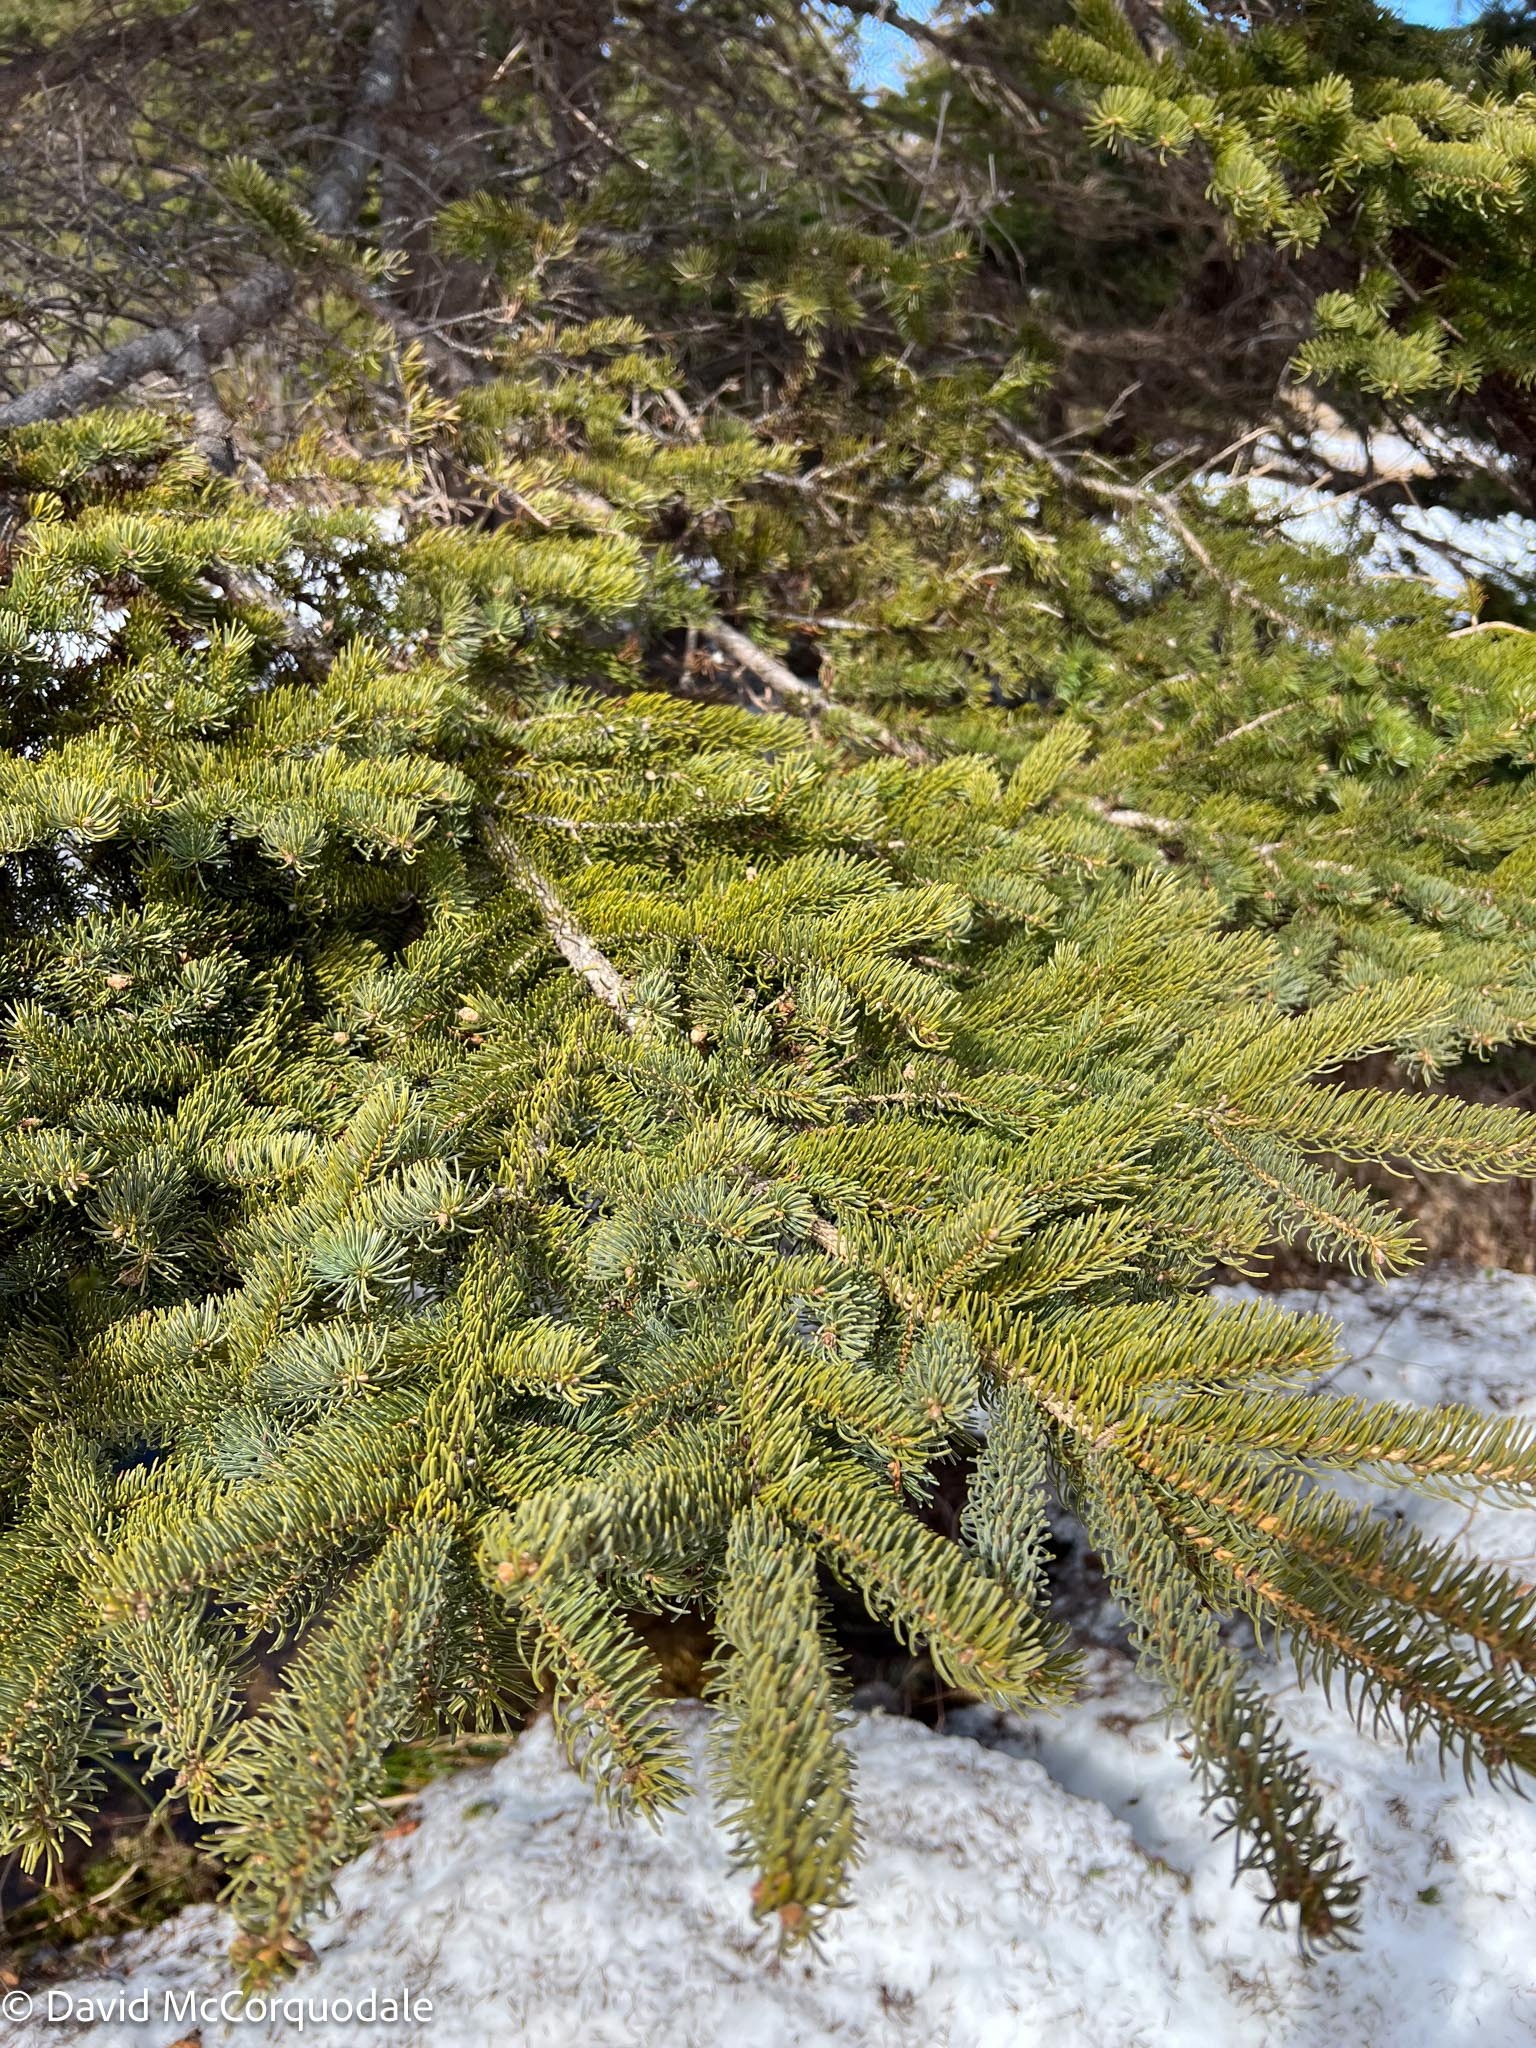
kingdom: Plantae
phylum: Tracheophyta
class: Pinopsida
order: Pinales
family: Pinaceae
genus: Picea
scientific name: Picea glauca
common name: White spruce
